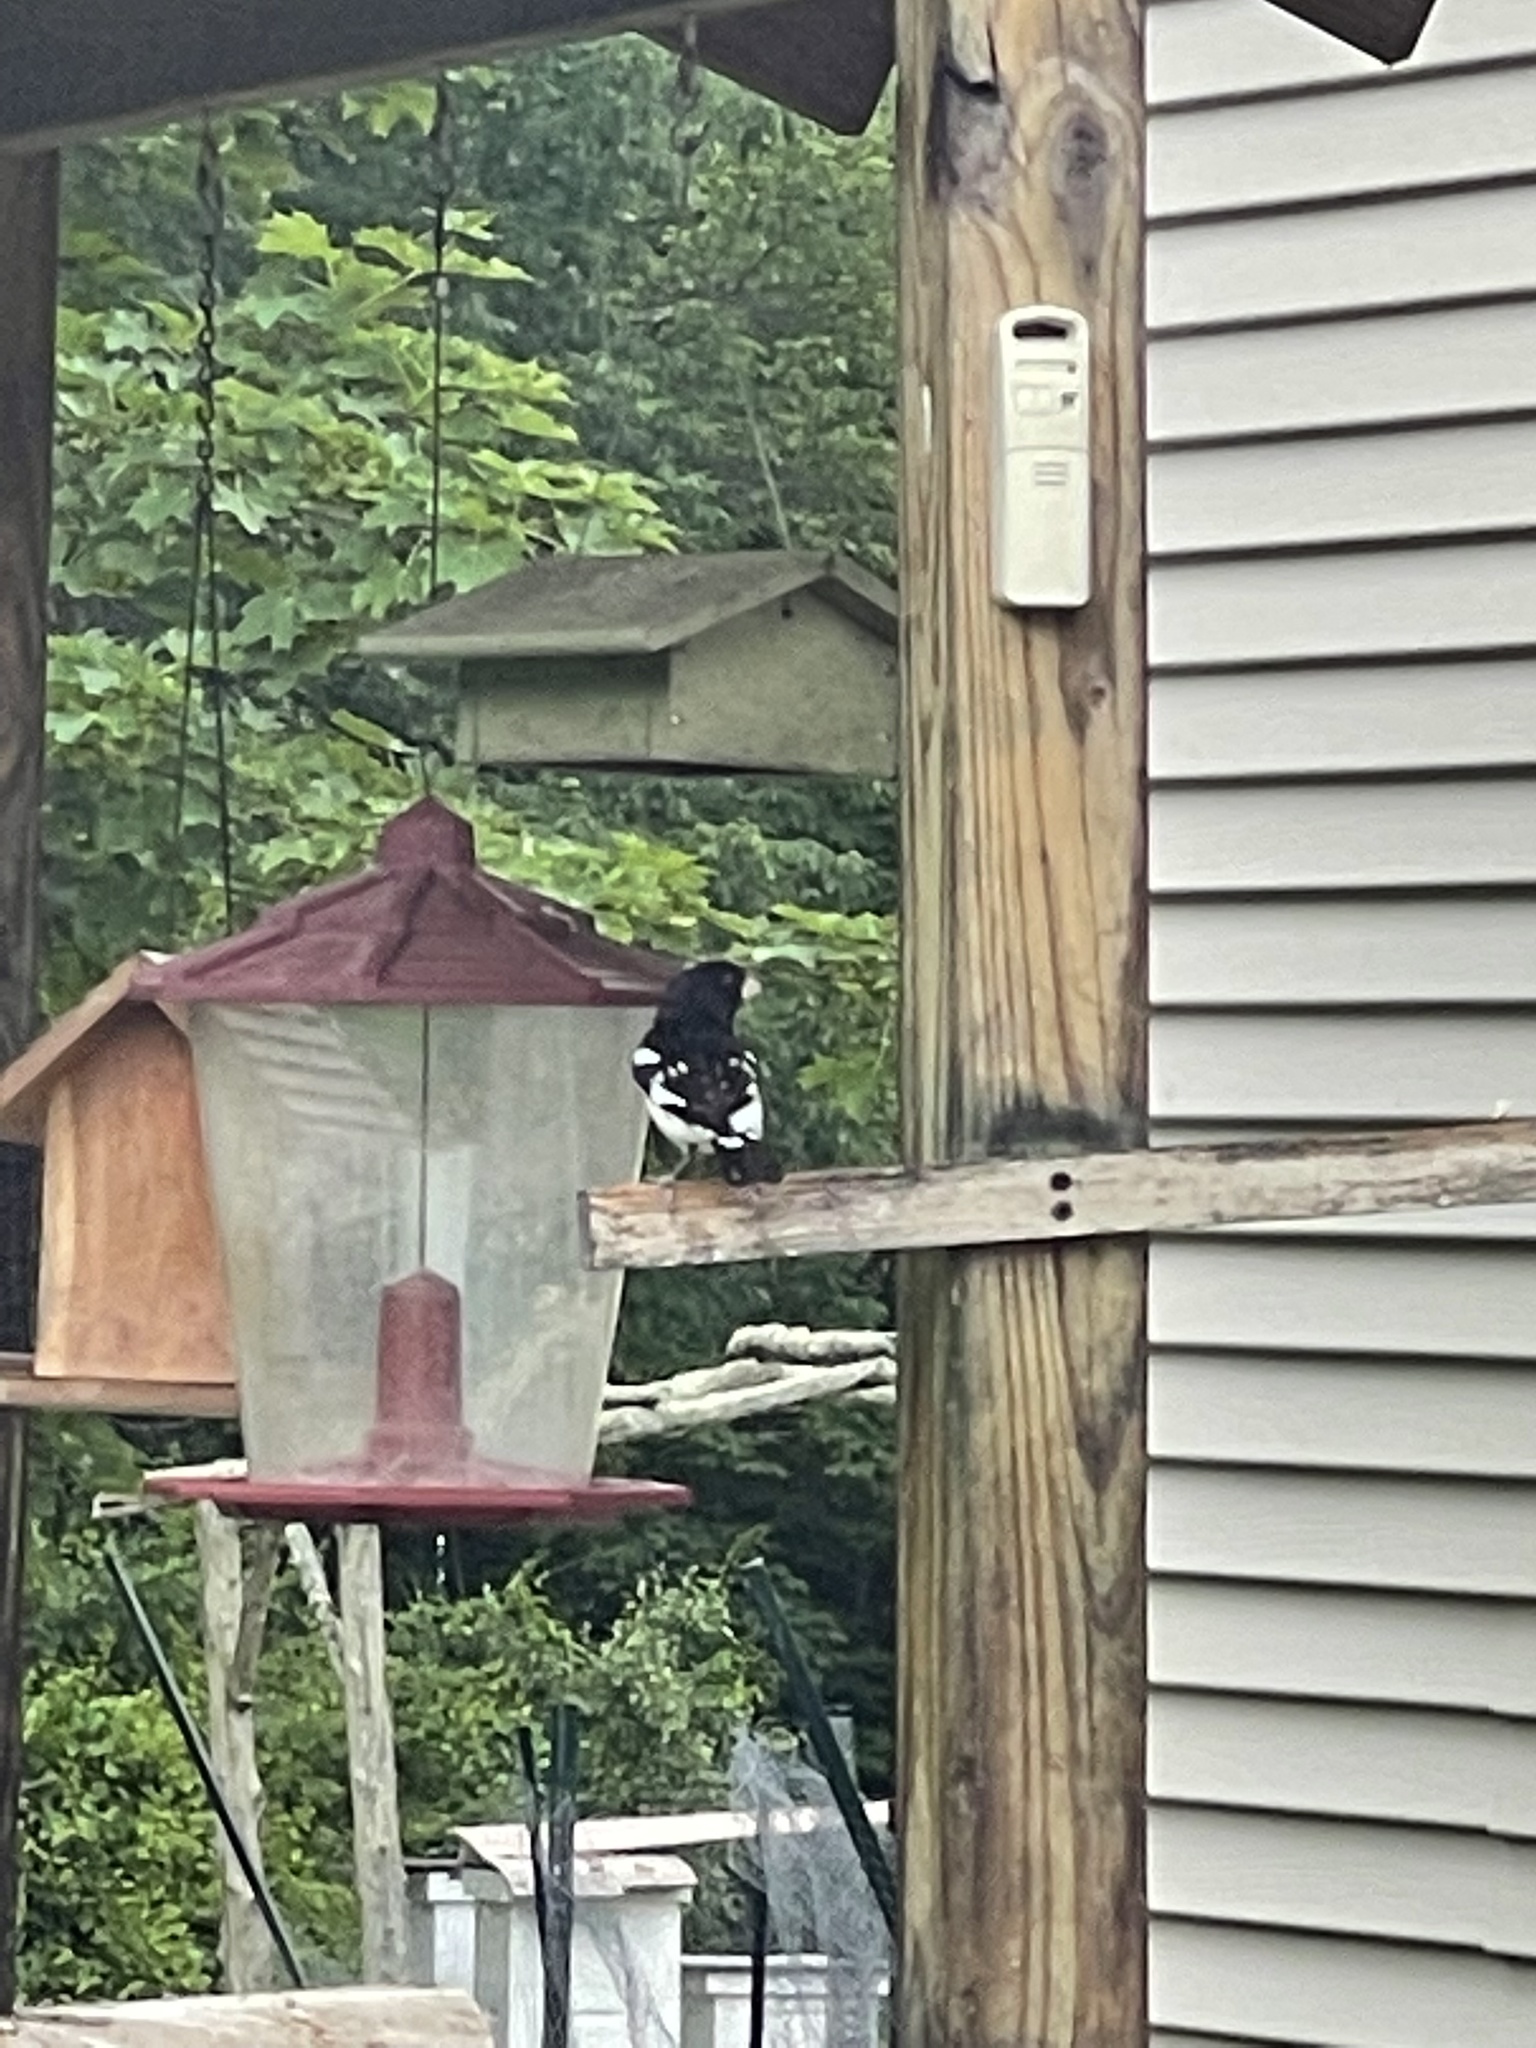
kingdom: Animalia
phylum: Chordata
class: Aves
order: Passeriformes
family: Cardinalidae
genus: Pheucticus
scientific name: Pheucticus ludovicianus
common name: Rose-breasted grosbeak
